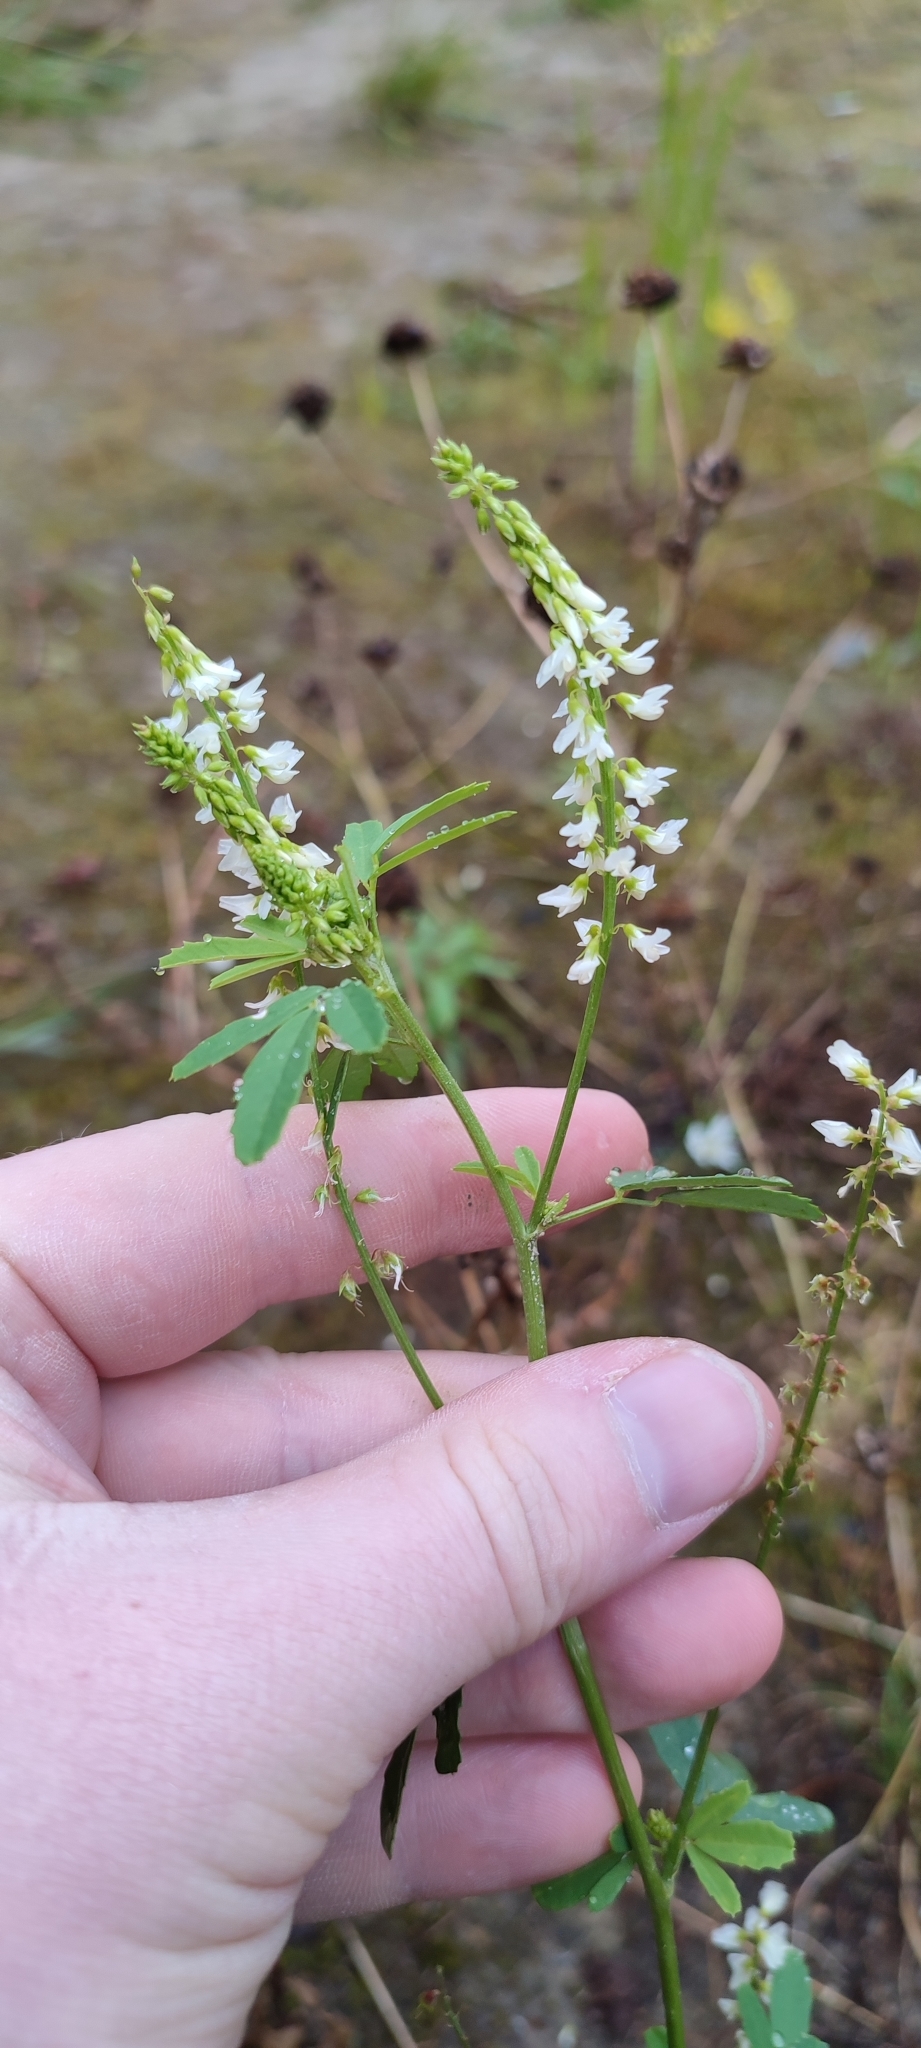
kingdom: Plantae
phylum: Tracheophyta
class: Magnoliopsida
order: Fabales
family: Fabaceae
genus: Melilotus
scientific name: Melilotus albus
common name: White melilot
